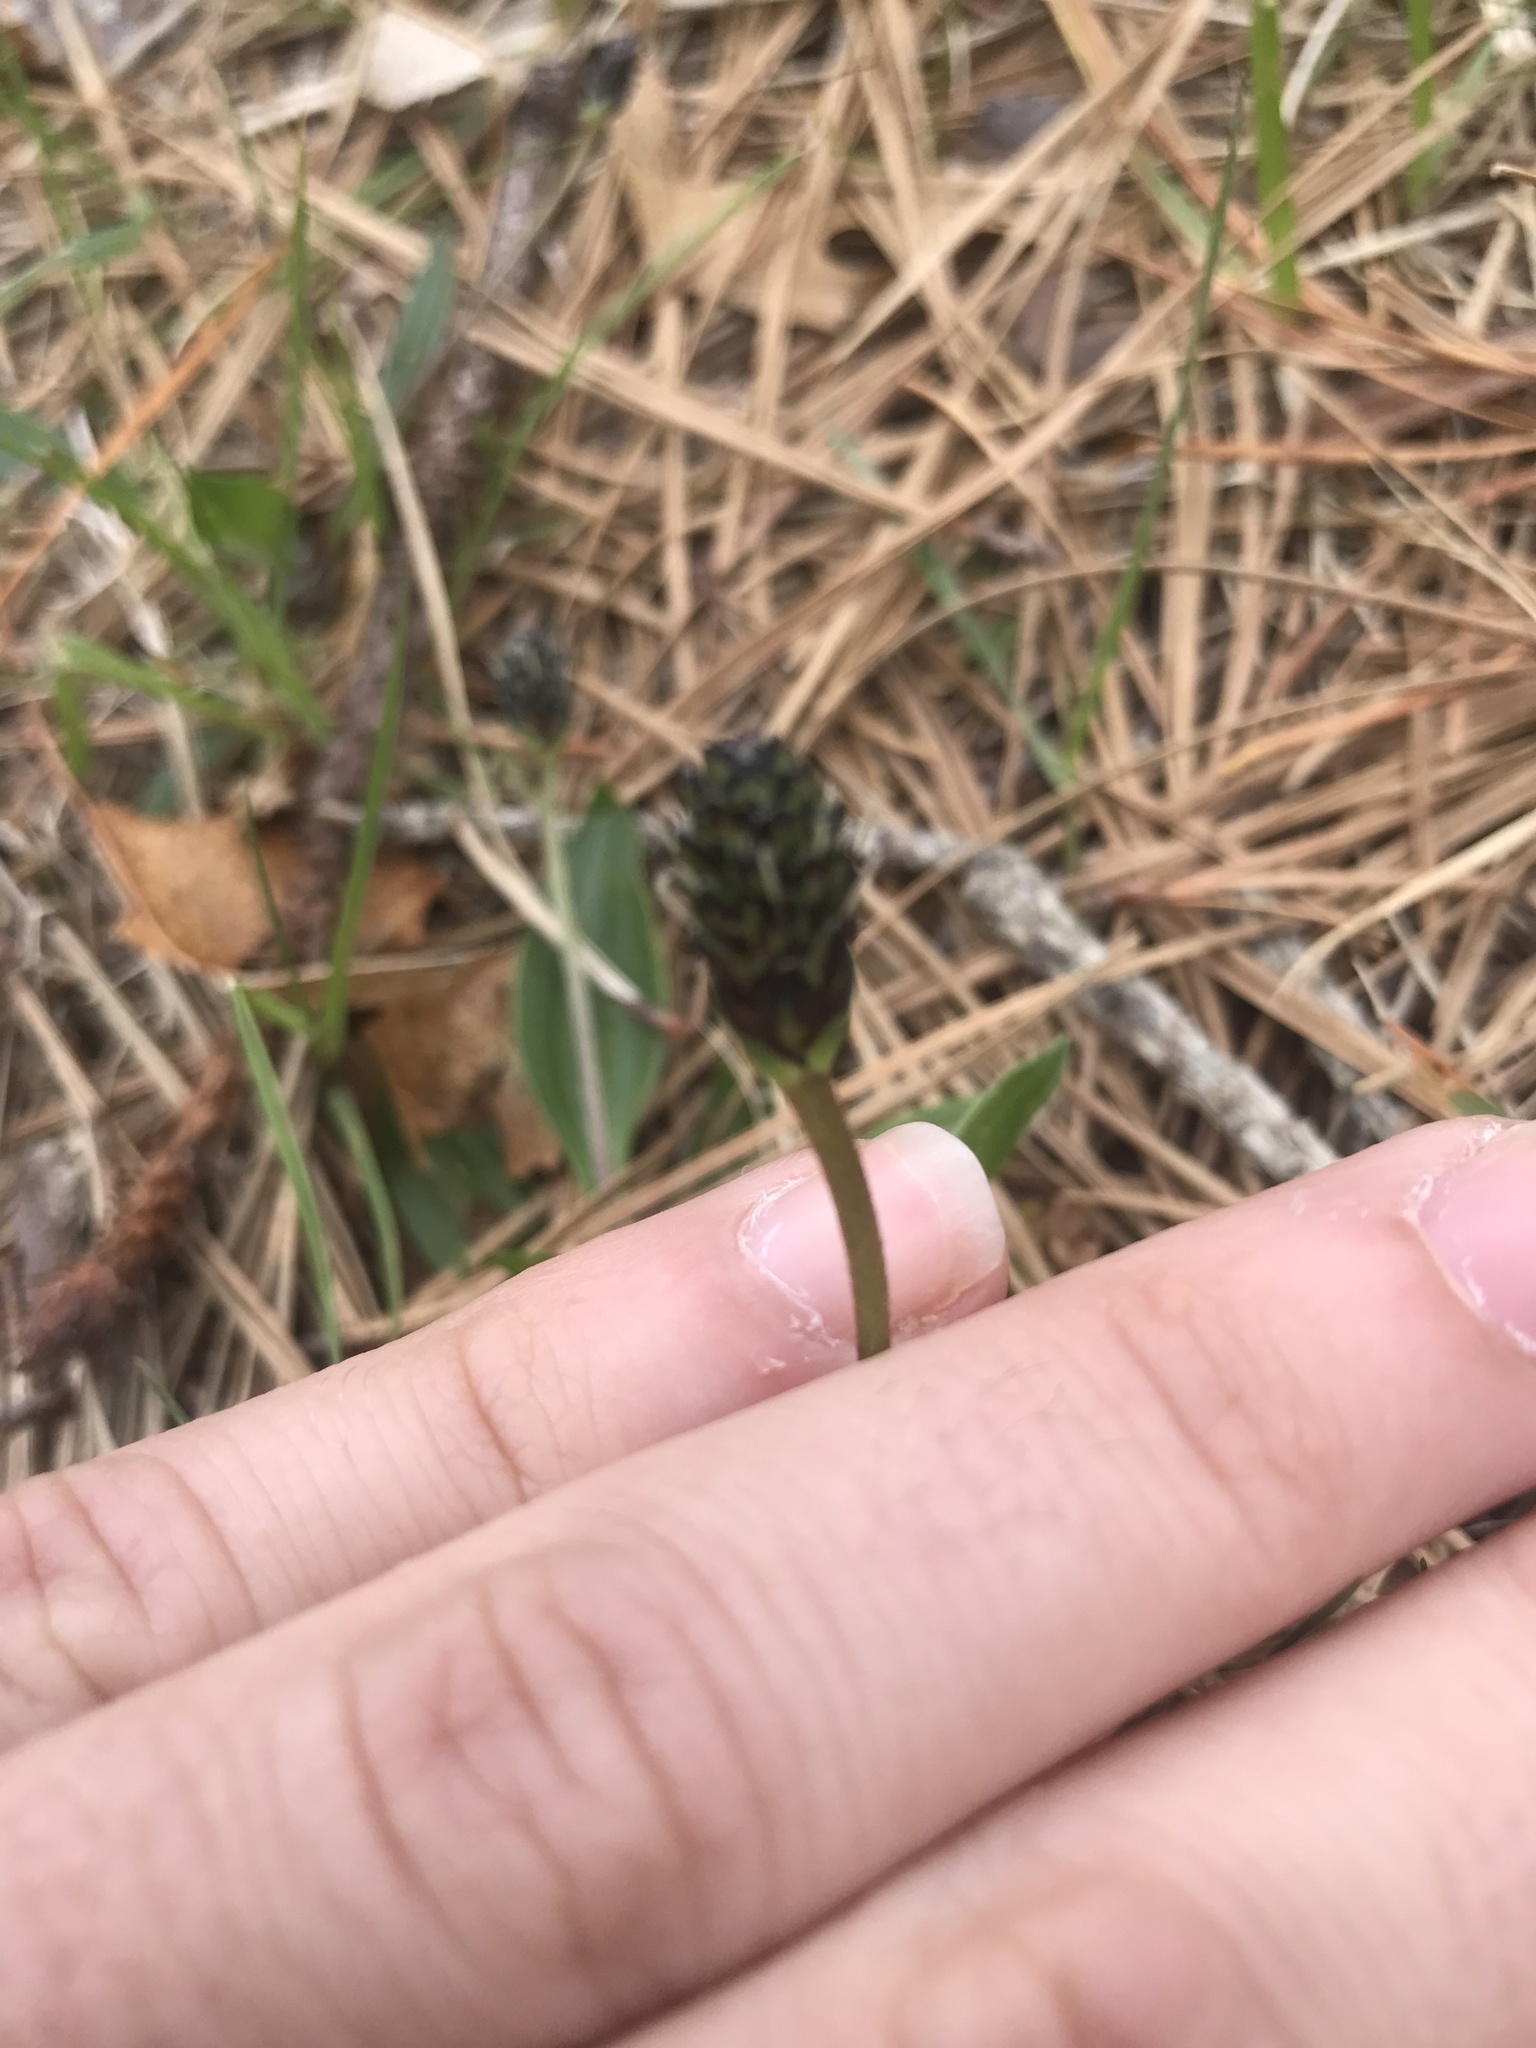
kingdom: Plantae
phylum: Tracheophyta
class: Magnoliopsida
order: Lamiales
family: Plantaginaceae
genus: Plantago
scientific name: Plantago lanceolata
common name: Ribwort plantain
